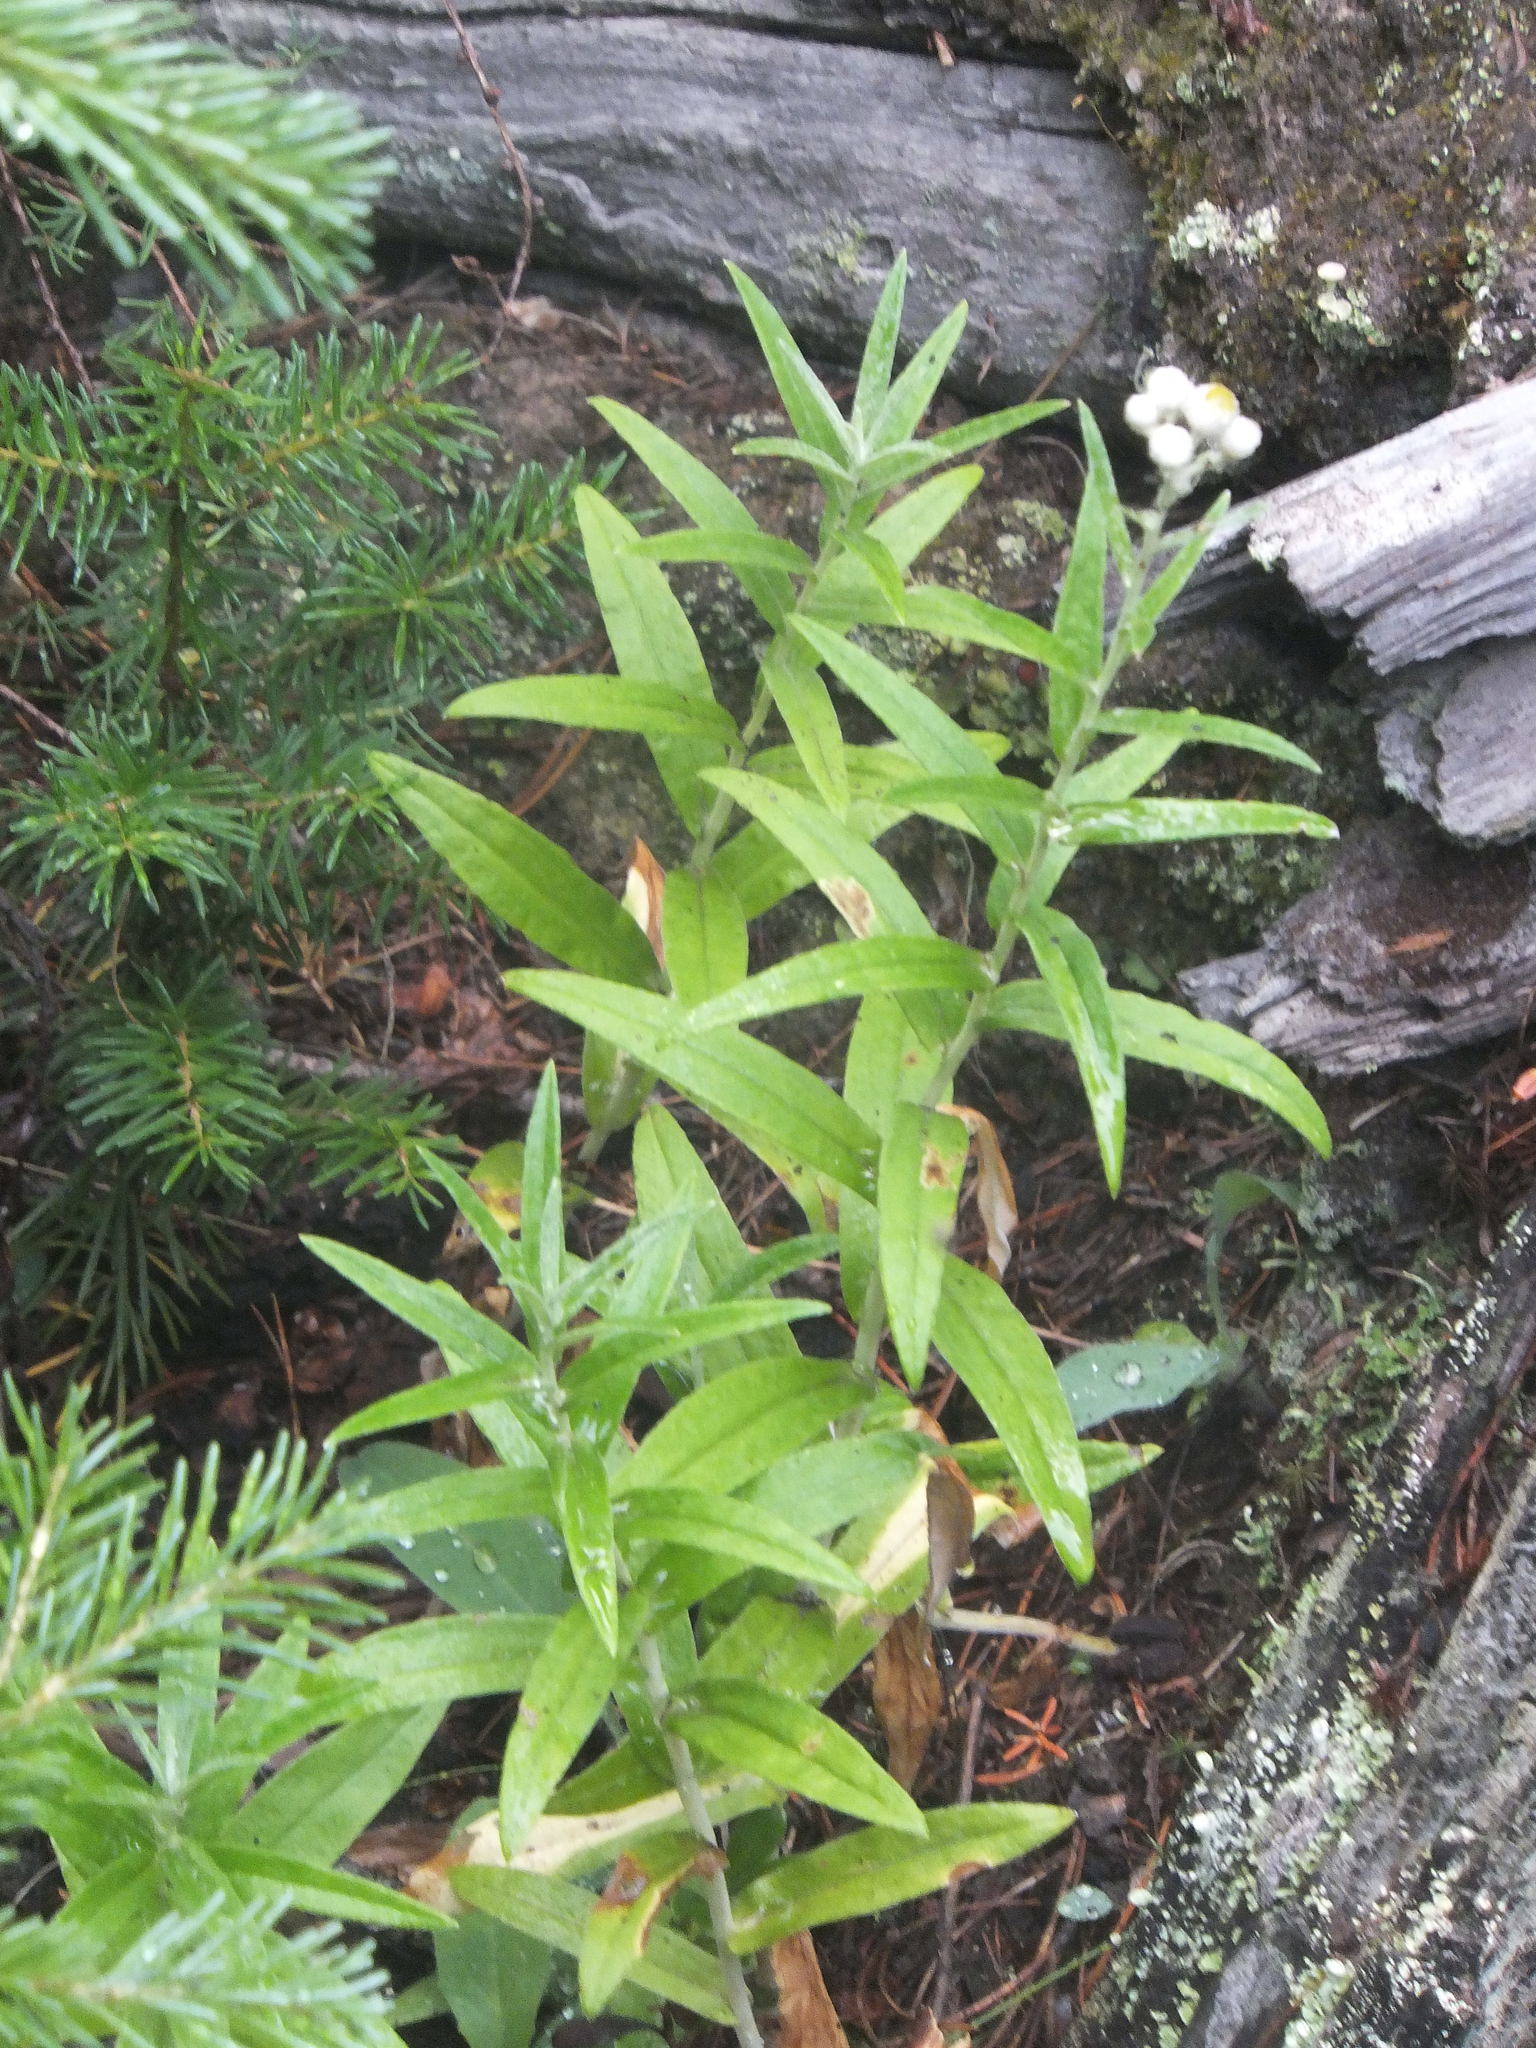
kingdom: Plantae
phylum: Tracheophyta
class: Magnoliopsida
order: Asterales
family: Asteraceae
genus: Anaphalis
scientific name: Anaphalis margaritacea
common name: Pearly everlasting
